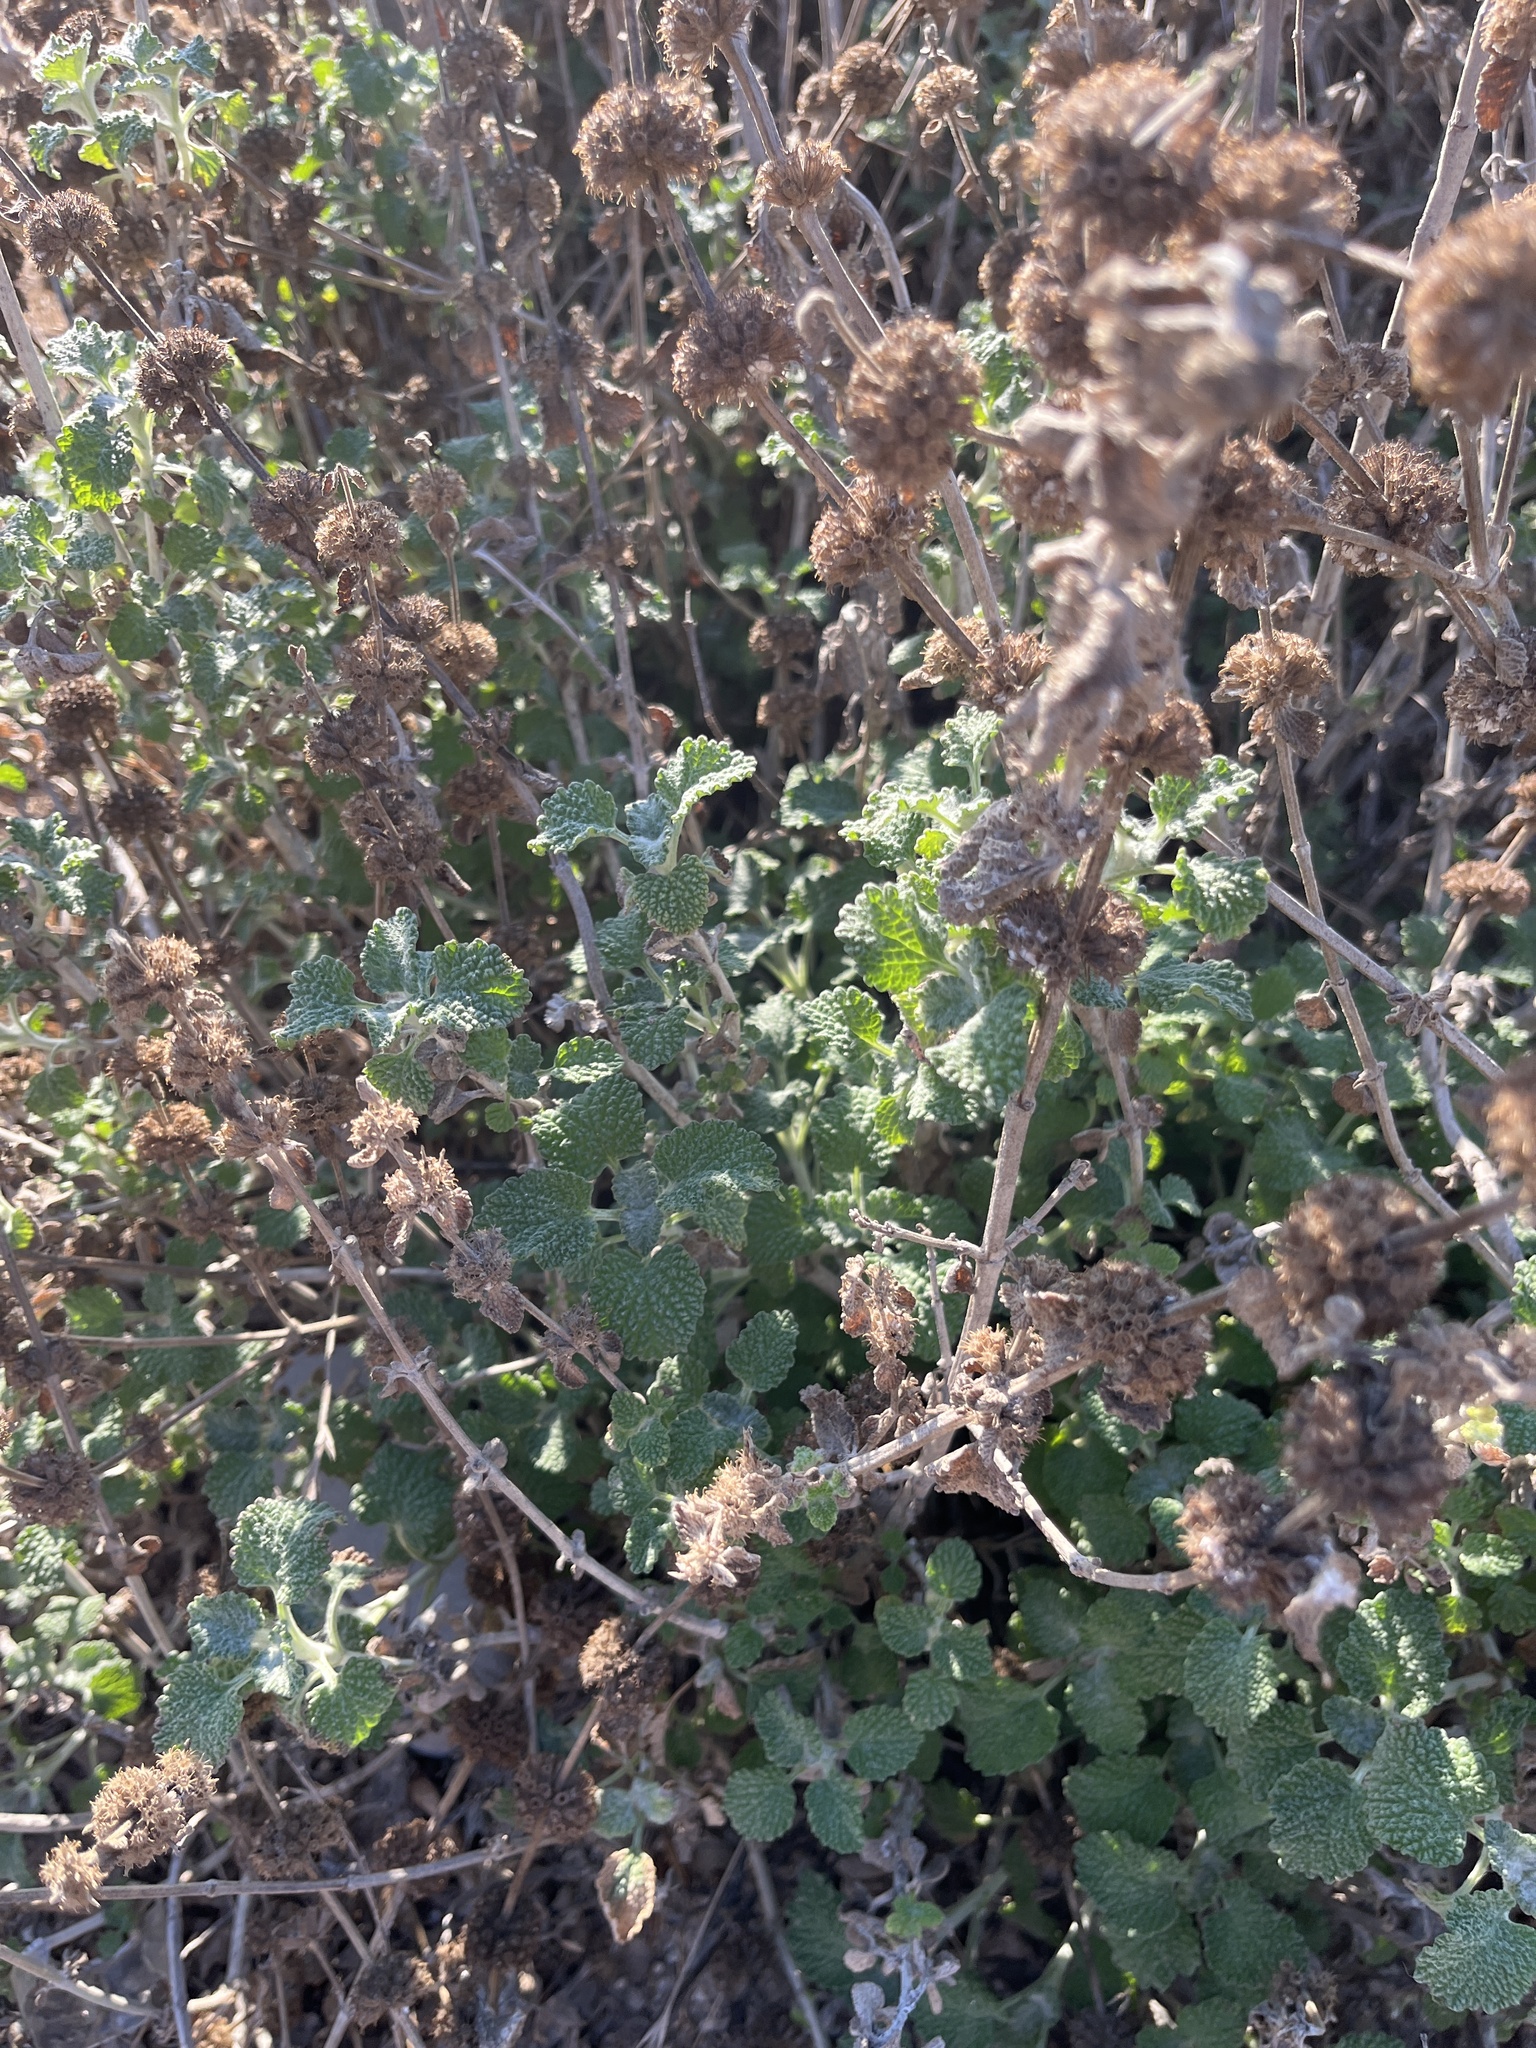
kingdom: Plantae
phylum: Tracheophyta
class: Magnoliopsida
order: Lamiales
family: Lamiaceae
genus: Marrubium
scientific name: Marrubium vulgare
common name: Horehound
